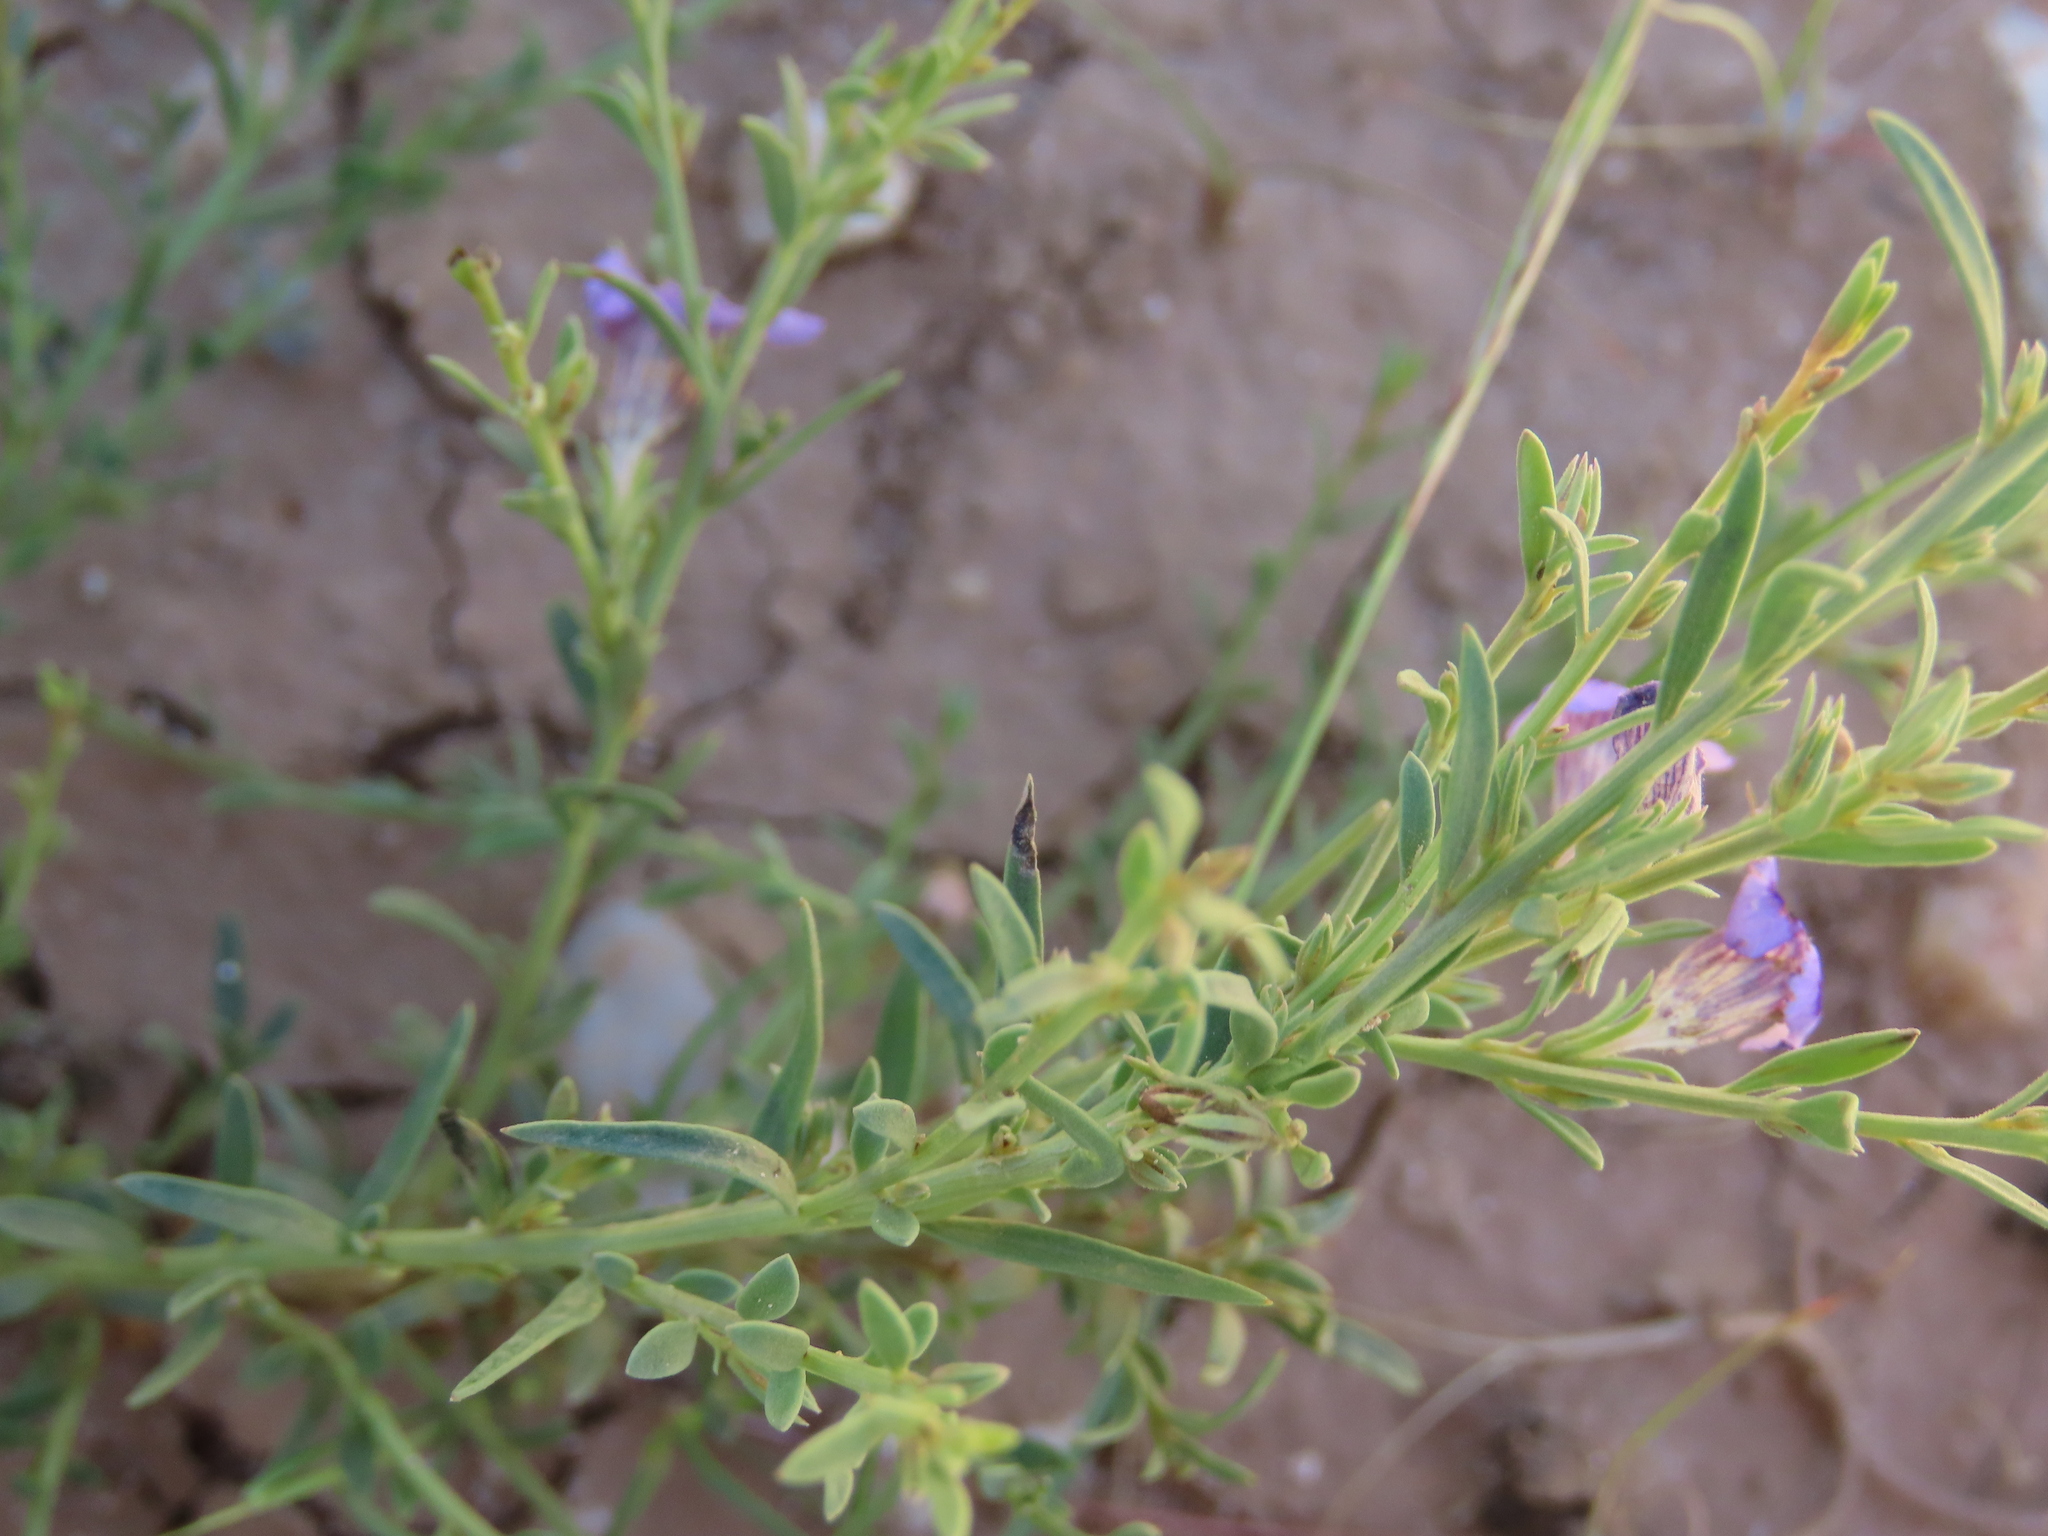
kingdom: Plantae
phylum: Tracheophyta
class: Magnoliopsida
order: Lamiales
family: Scrophulariaceae
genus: Peliostomum
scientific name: Peliostomum leucorrhizum
